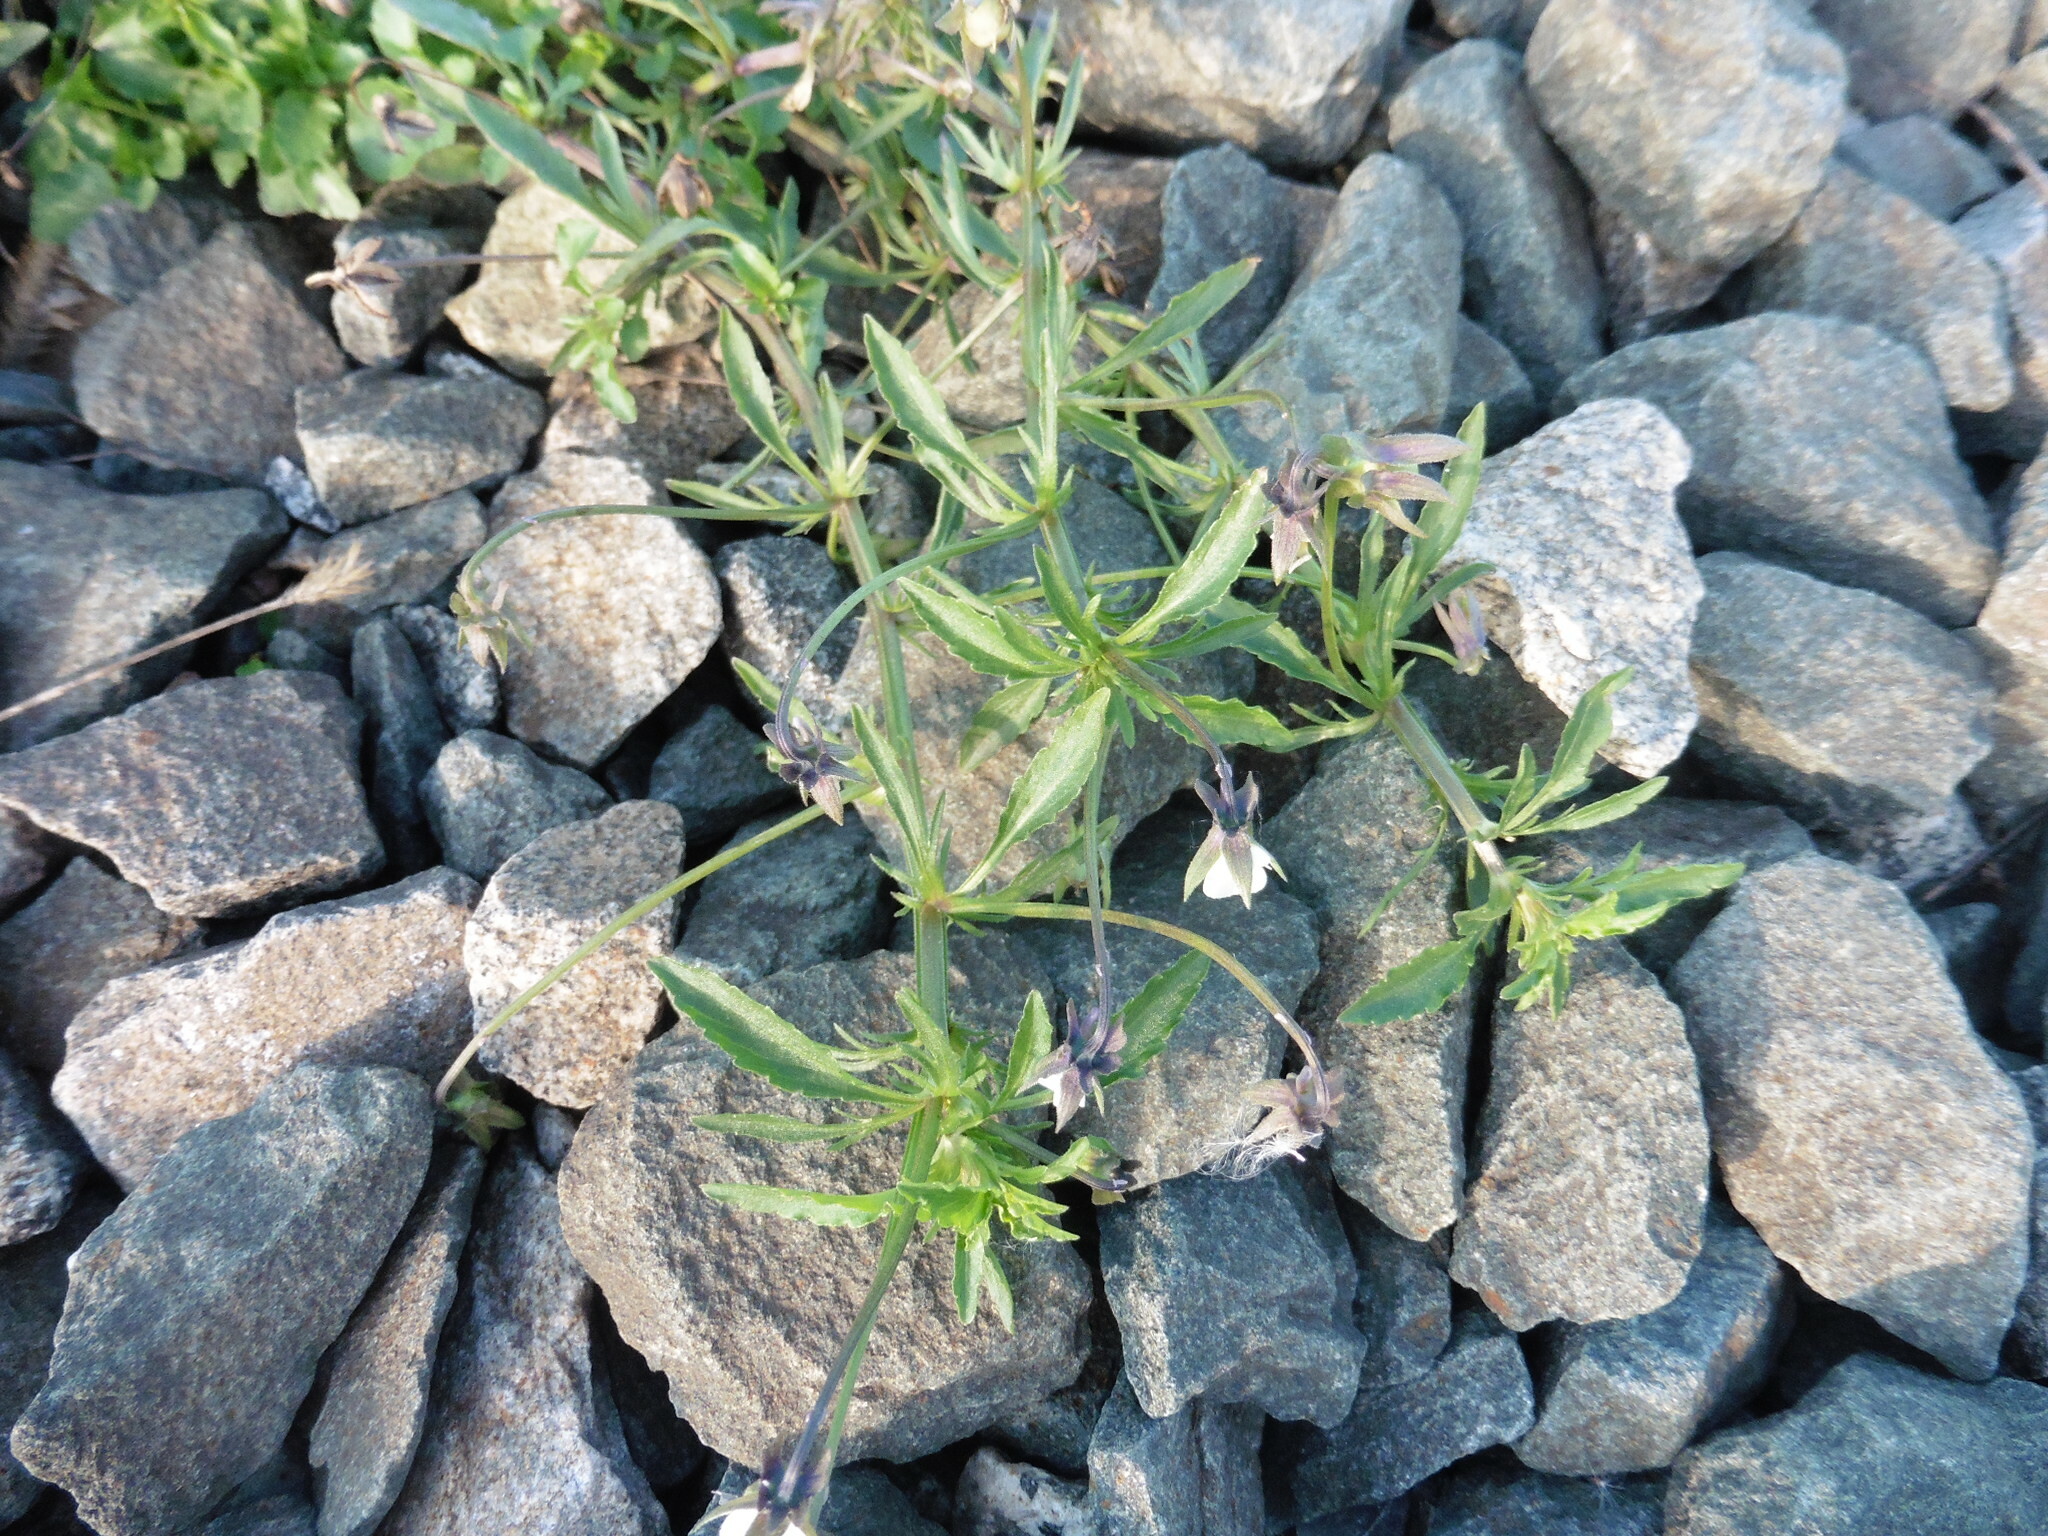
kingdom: Plantae
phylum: Tracheophyta
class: Magnoliopsida
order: Malpighiales
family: Violaceae
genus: Viola
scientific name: Viola arvensis
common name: Field pansy
